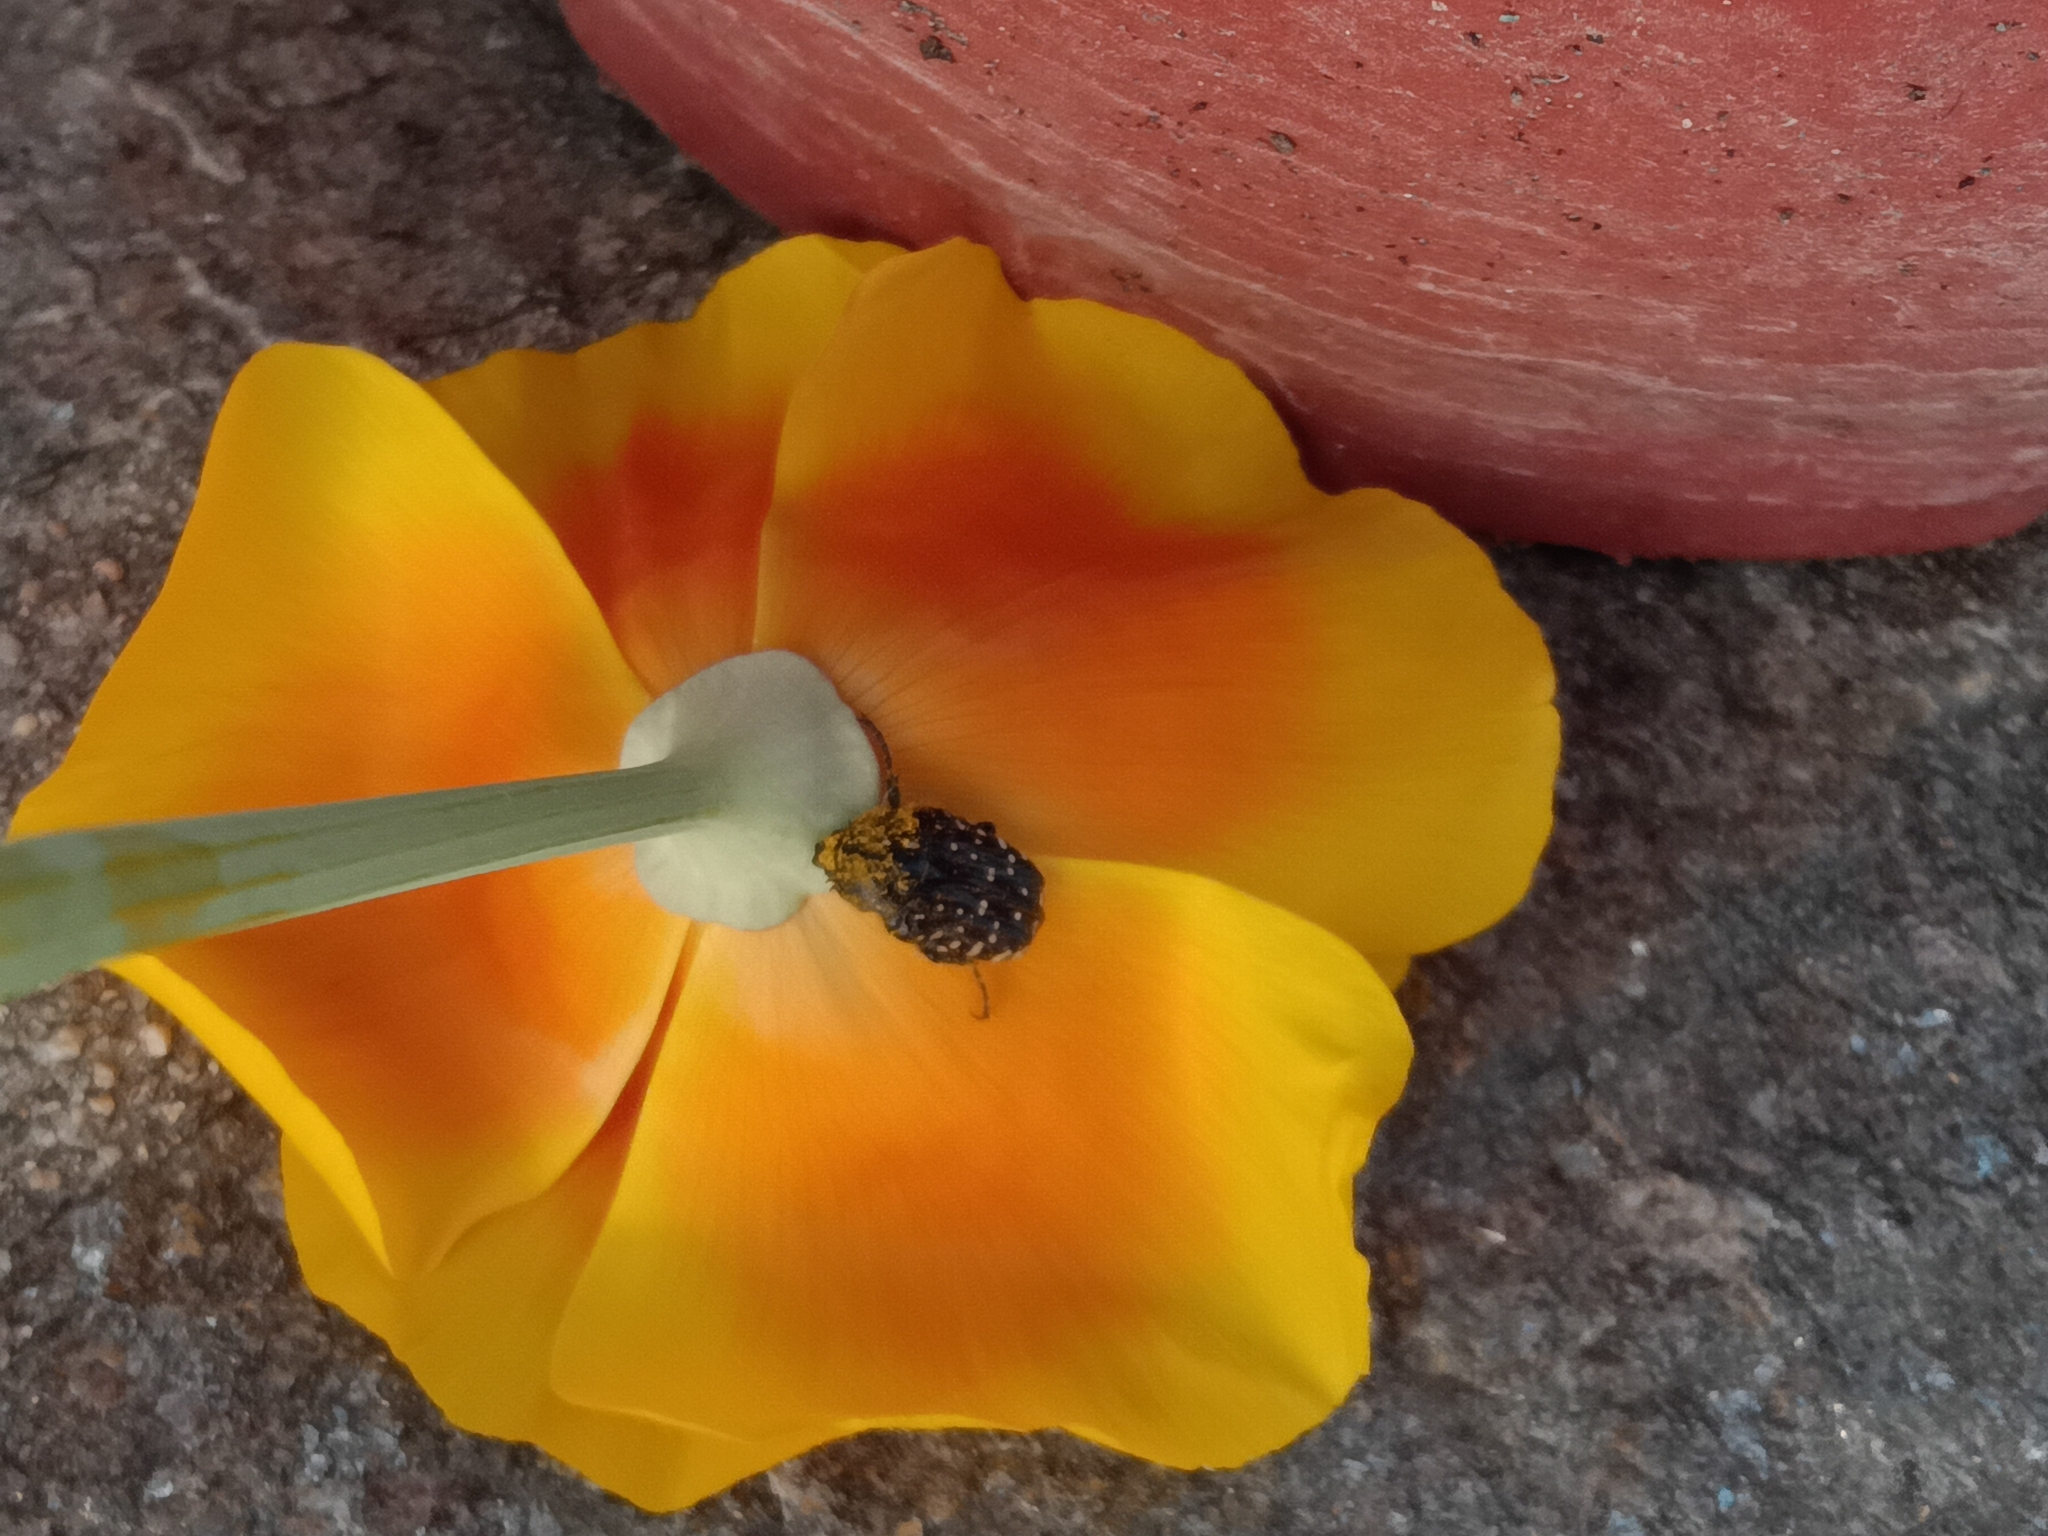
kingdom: Animalia
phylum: Arthropoda
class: Insecta
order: Coleoptera
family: Scarabaeidae
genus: Oxythyrea
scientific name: Oxythyrea funesta
